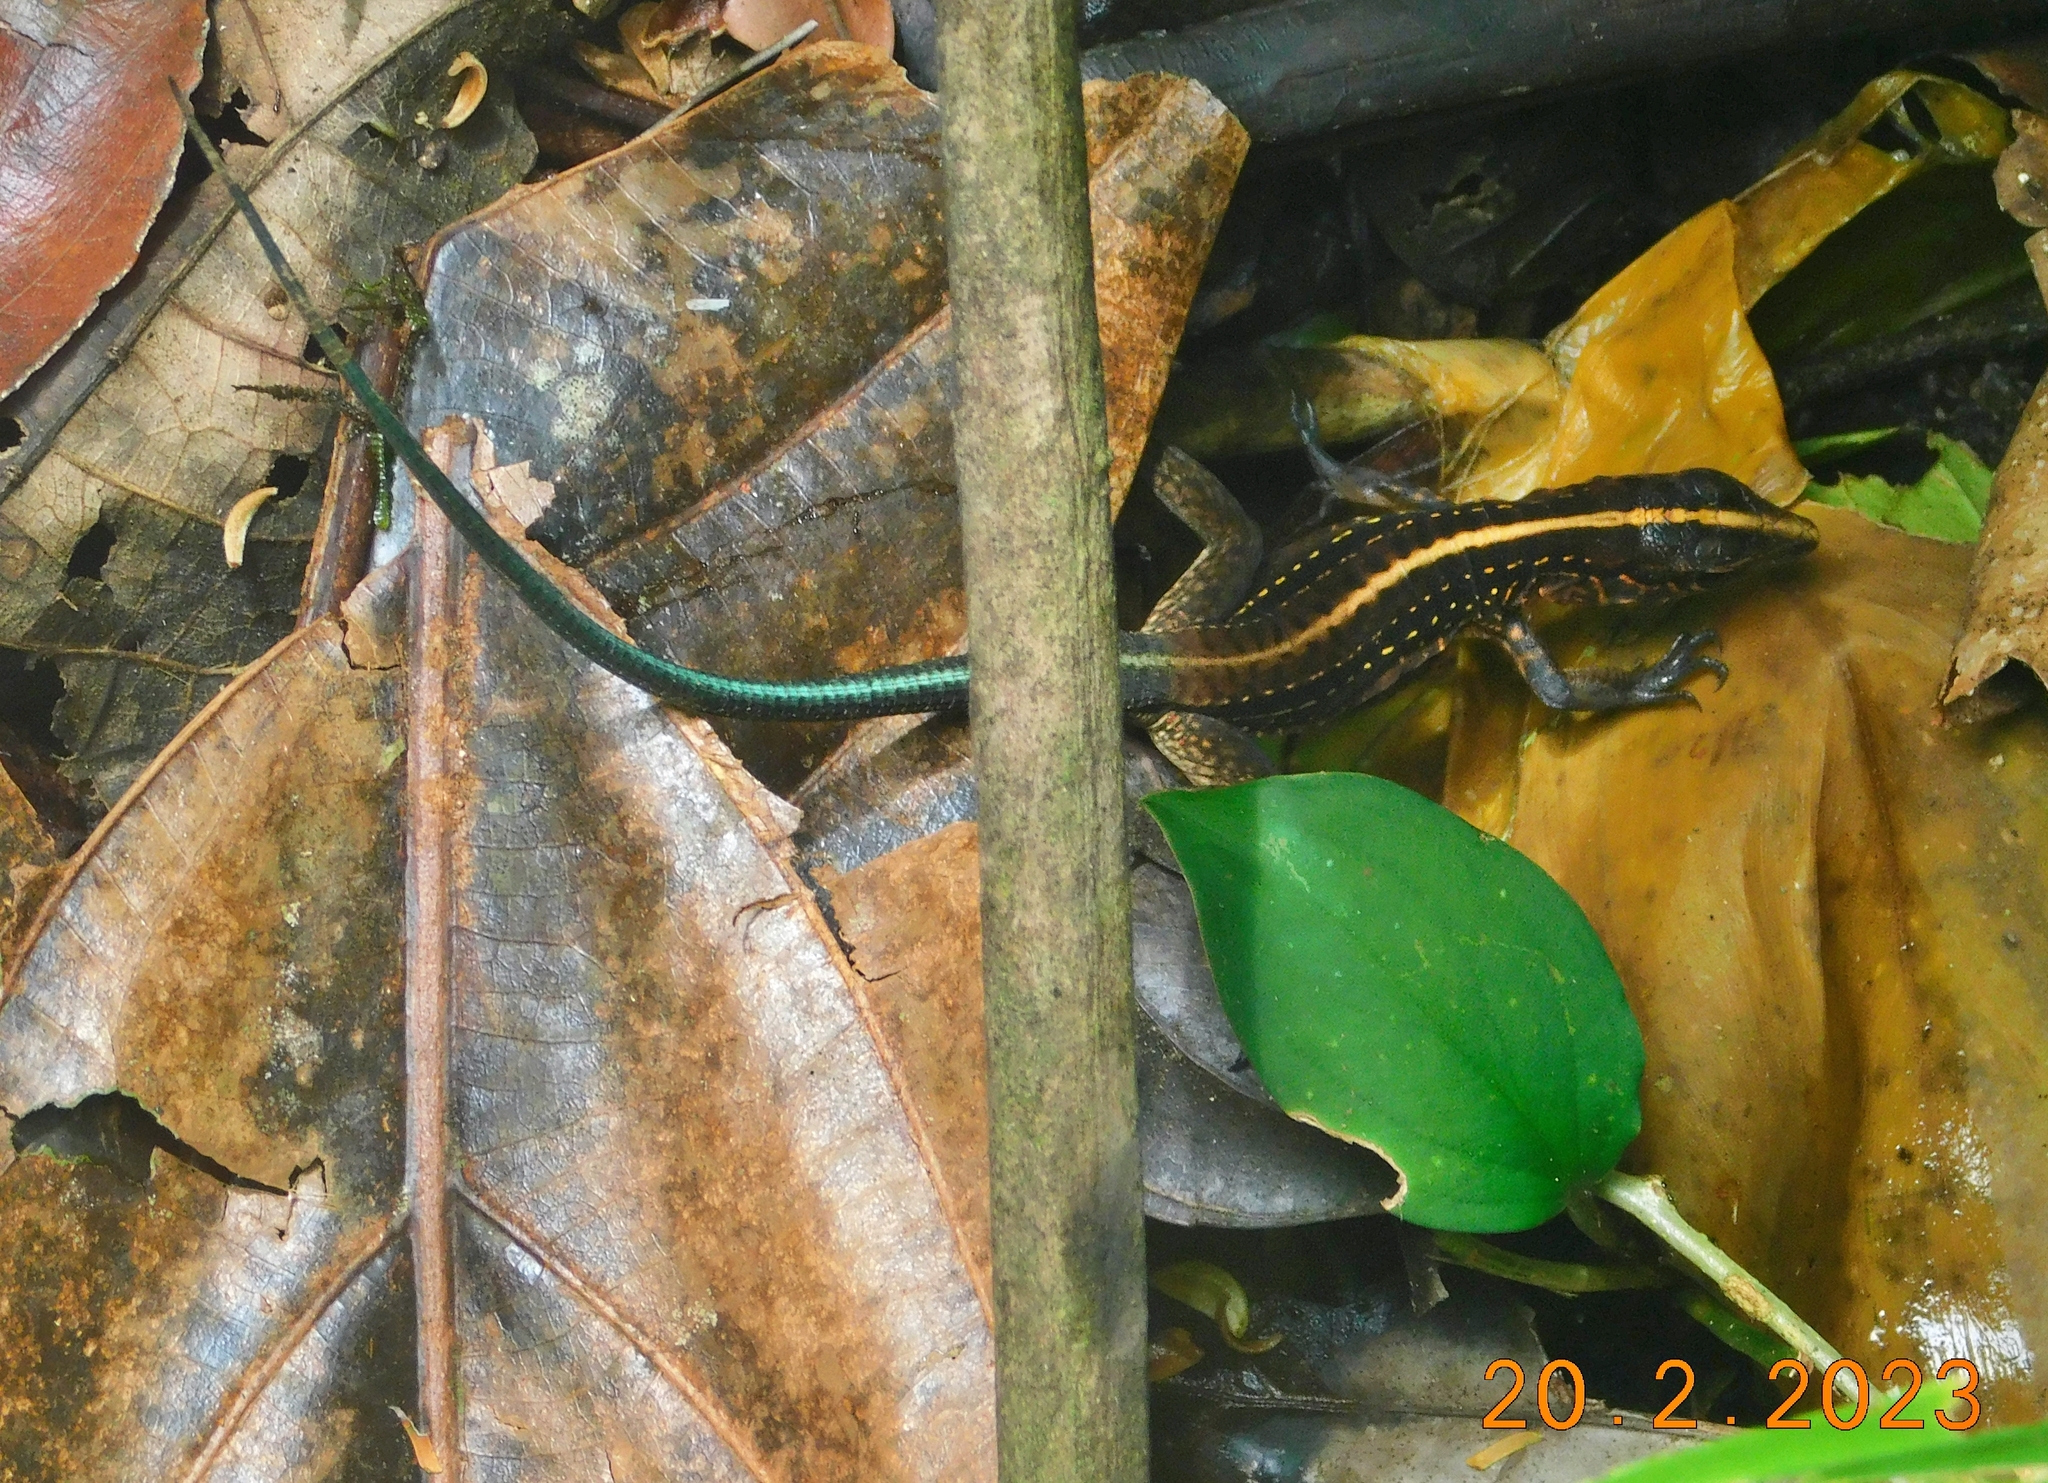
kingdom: Animalia
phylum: Chordata
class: Squamata
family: Teiidae
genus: Holcosus
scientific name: Holcosus festivus
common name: Middle american ameiva
